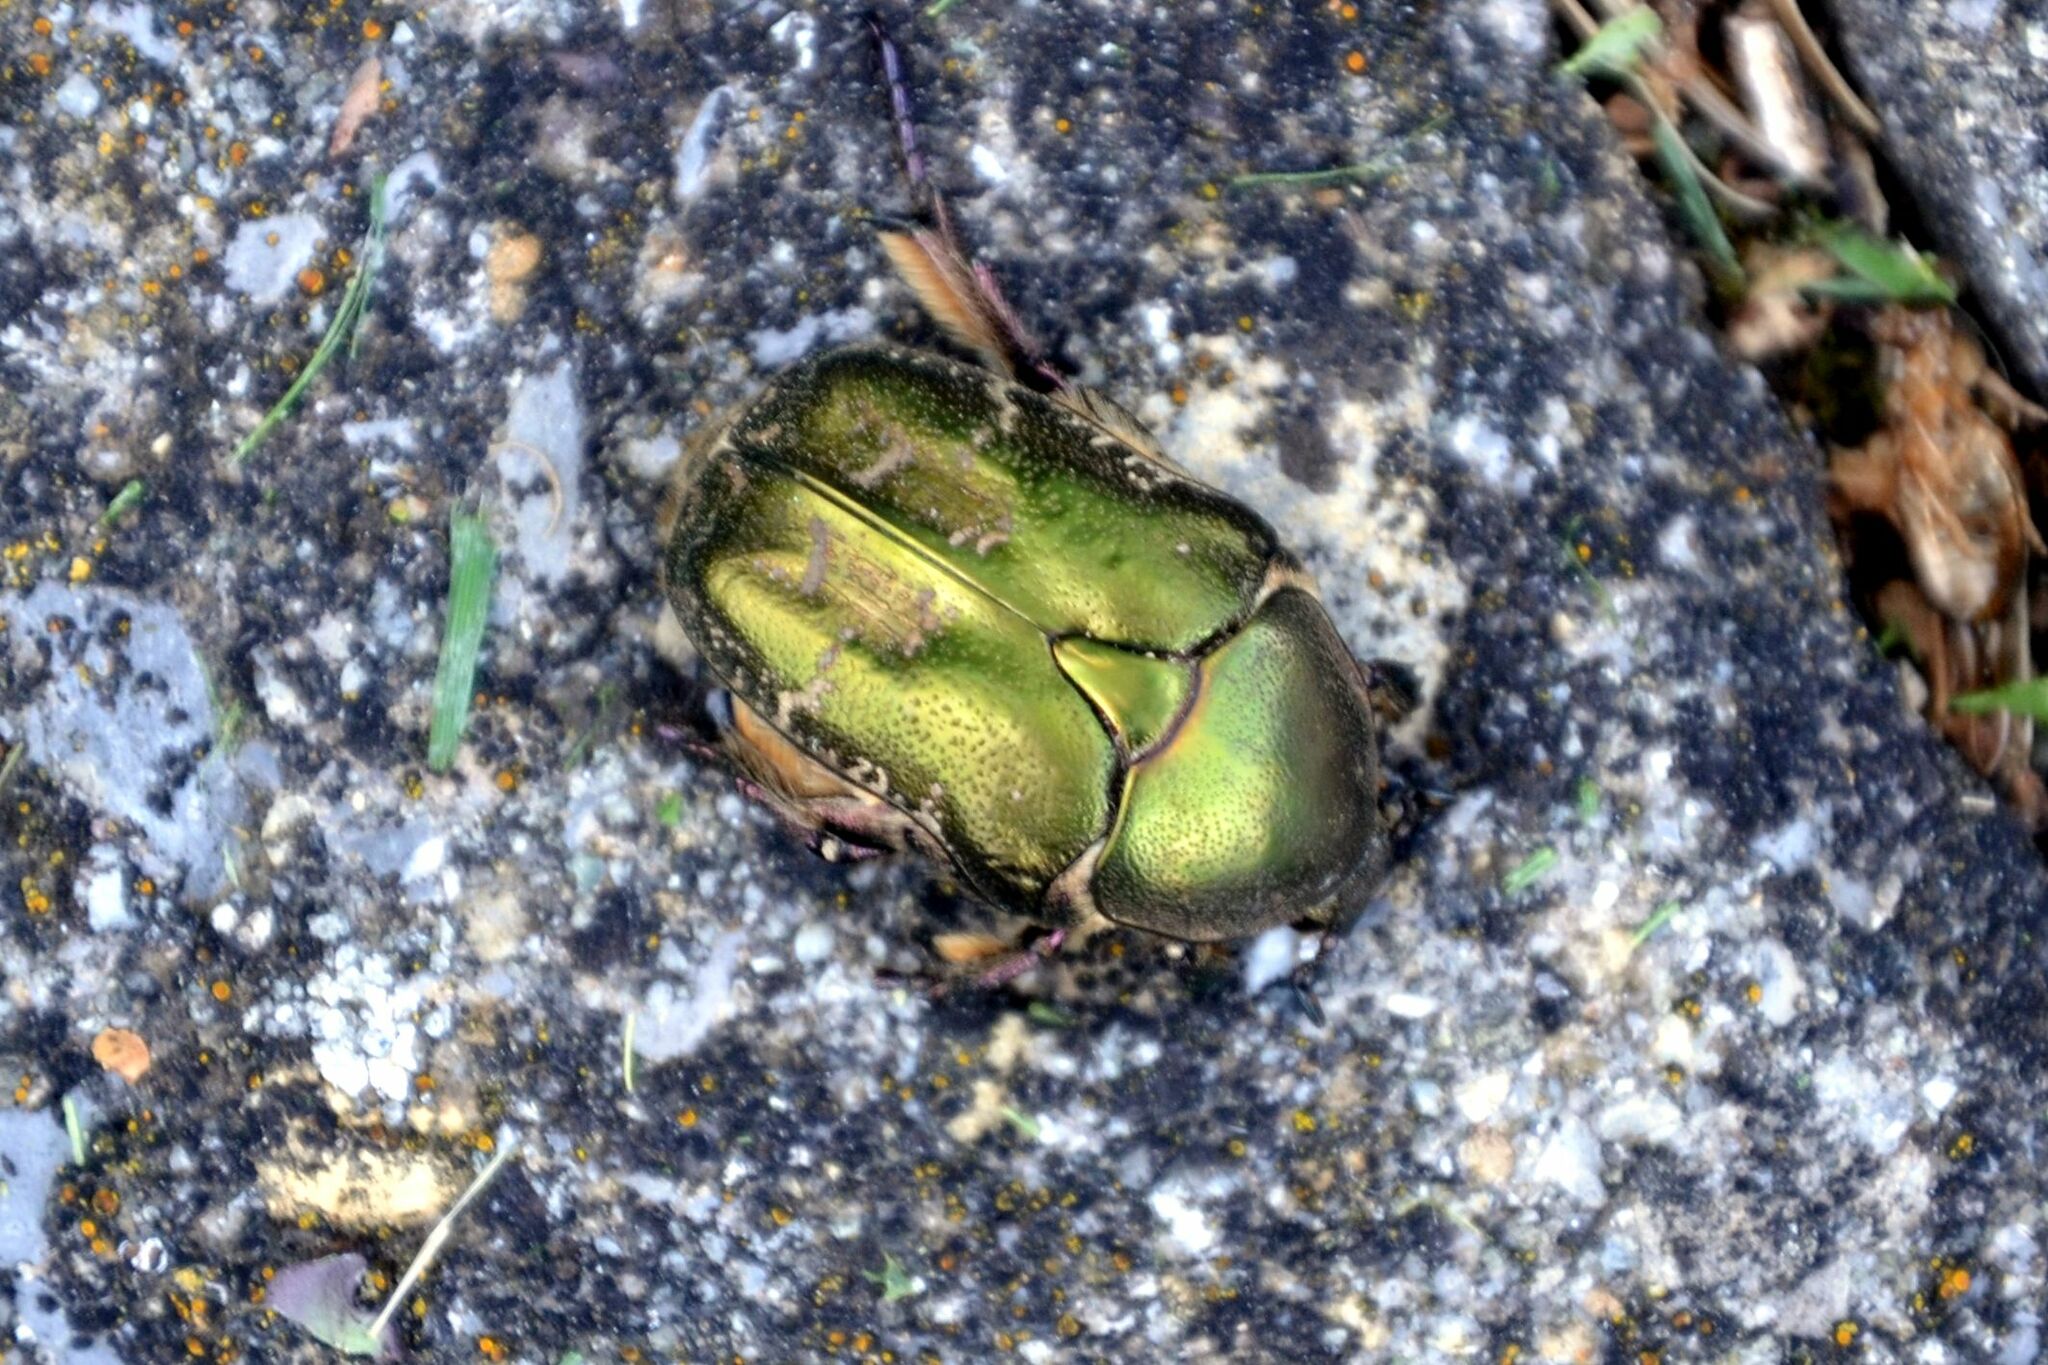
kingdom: Animalia
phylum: Arthropoda
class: Insecta
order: Coleoptera
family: Scarabaeidae
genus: Protaetia
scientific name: Protaetia cuprea
